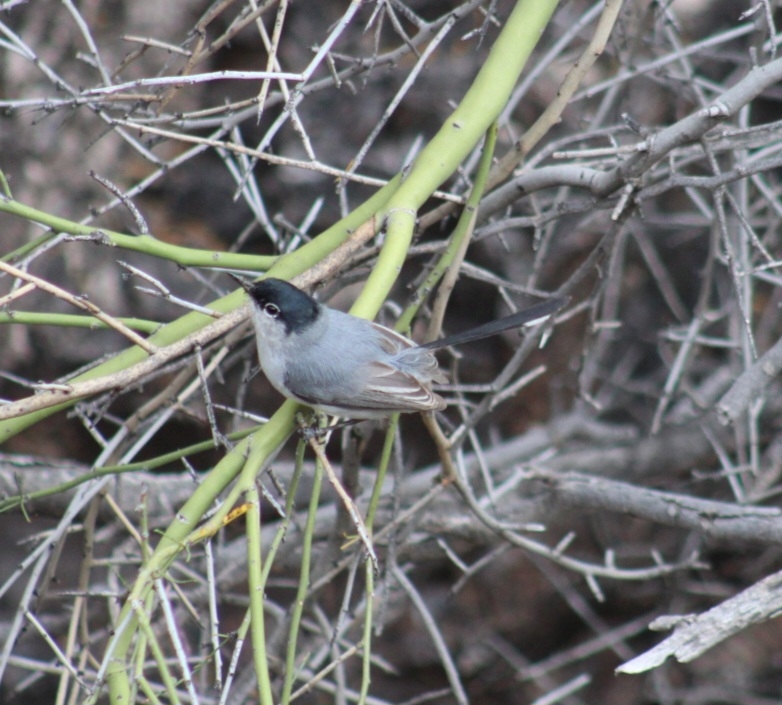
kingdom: Animalia
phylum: Chordata
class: Aves
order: Passeriformes
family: Polioptilidae
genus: Polioptila
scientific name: Polioptila melanura
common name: Black-tailed gnatcatcher
